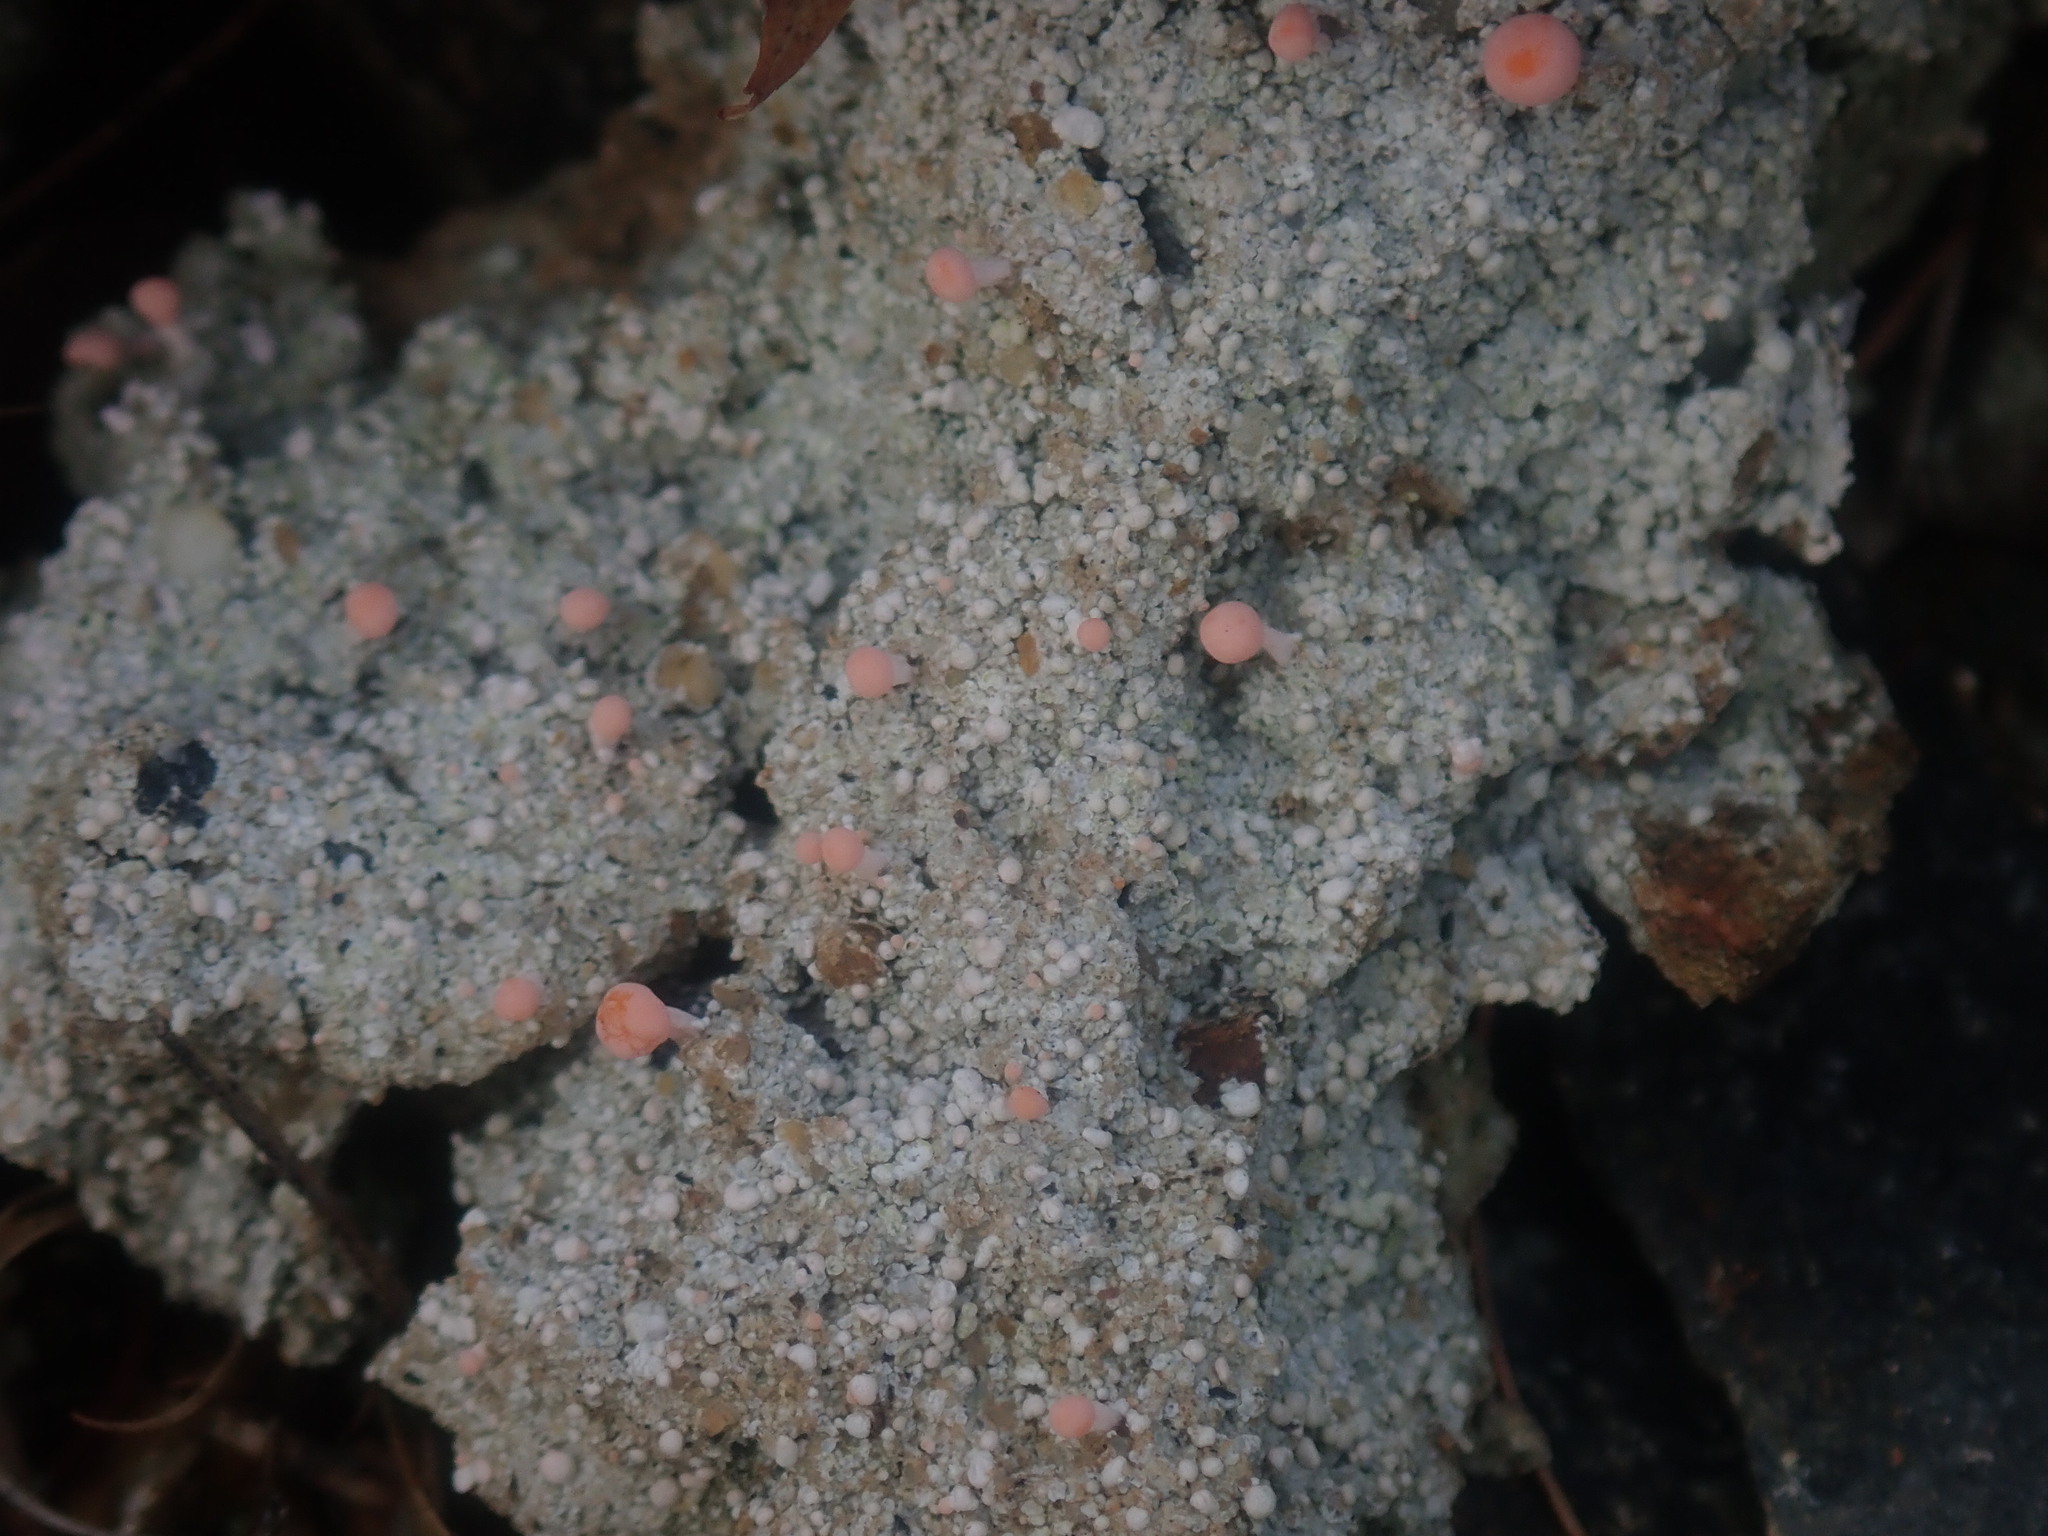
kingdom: Fungi
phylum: Ascomycota
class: Lecanoromycetes
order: Pertusariales
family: Icmadophilaceae
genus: Dibaeis
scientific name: Dibaeis baeomyces
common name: Pink earth lichen
